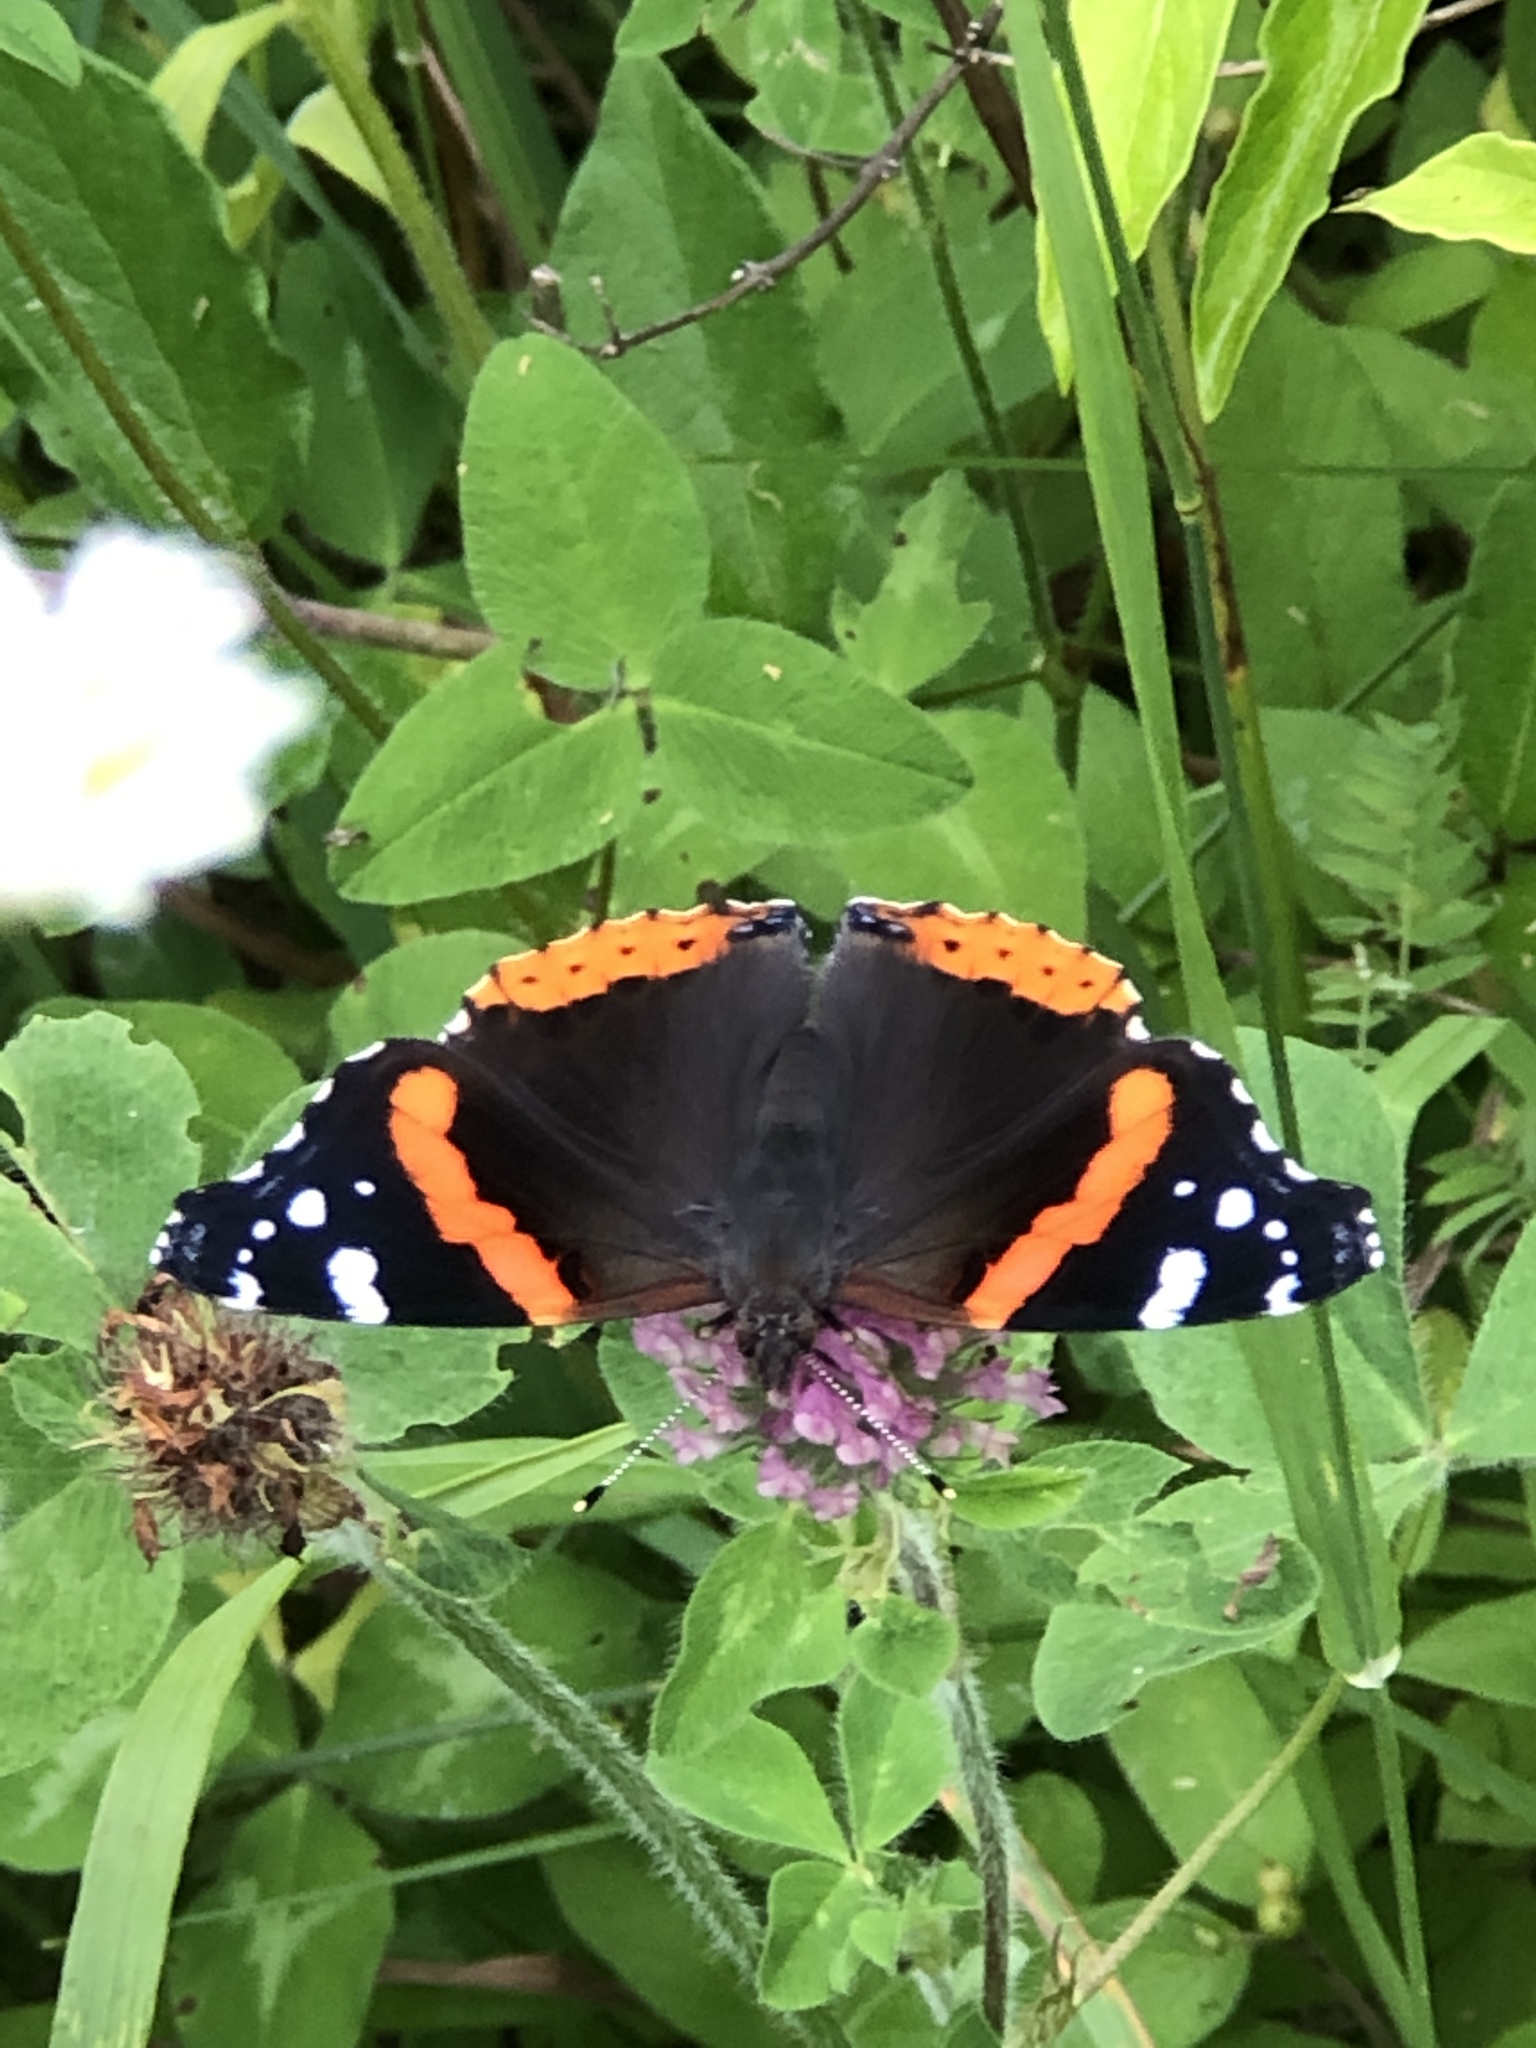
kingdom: Animalia
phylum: Arthropoda
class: Insecta
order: Lepidoptera
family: Nymphalidae
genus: Vanessa
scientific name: Vanessa atalanta
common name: Red admiral
